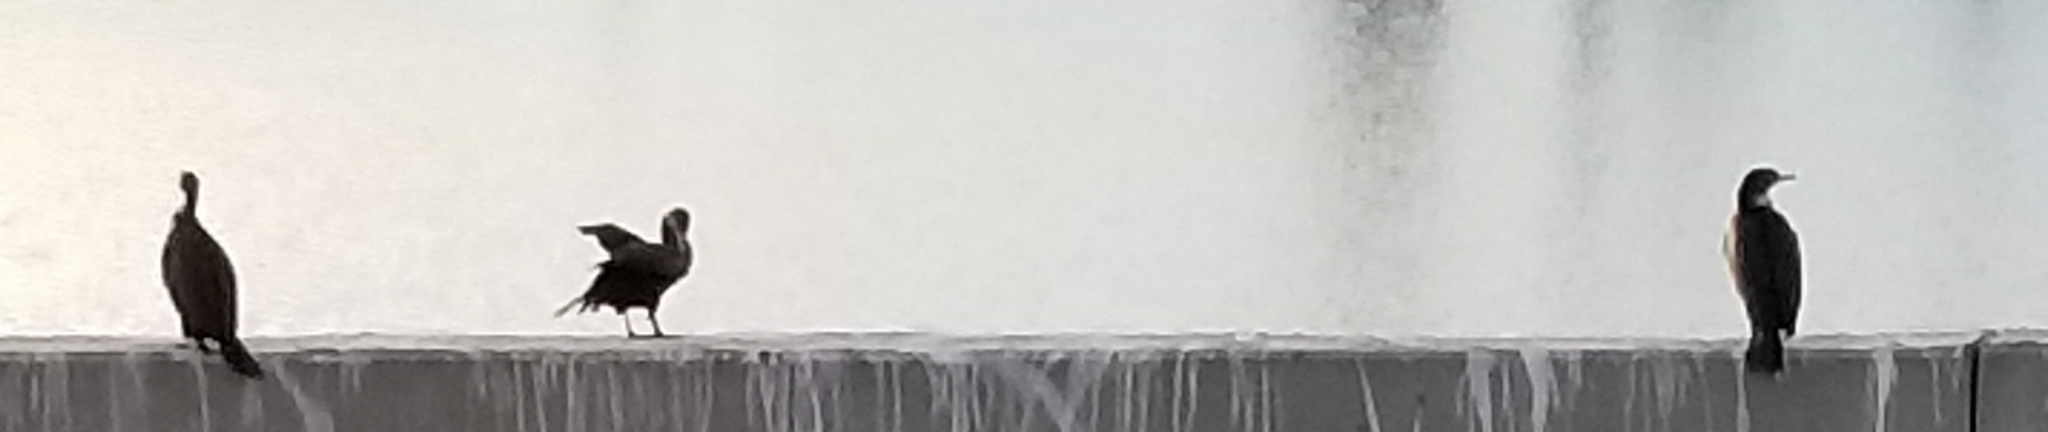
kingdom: Animalia
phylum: Chordata
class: Aves
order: Suliformes
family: Phalacrocoracidae
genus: Phalacrocorax
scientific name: Phalacrocorax auritus
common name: Double-crested cormorant
